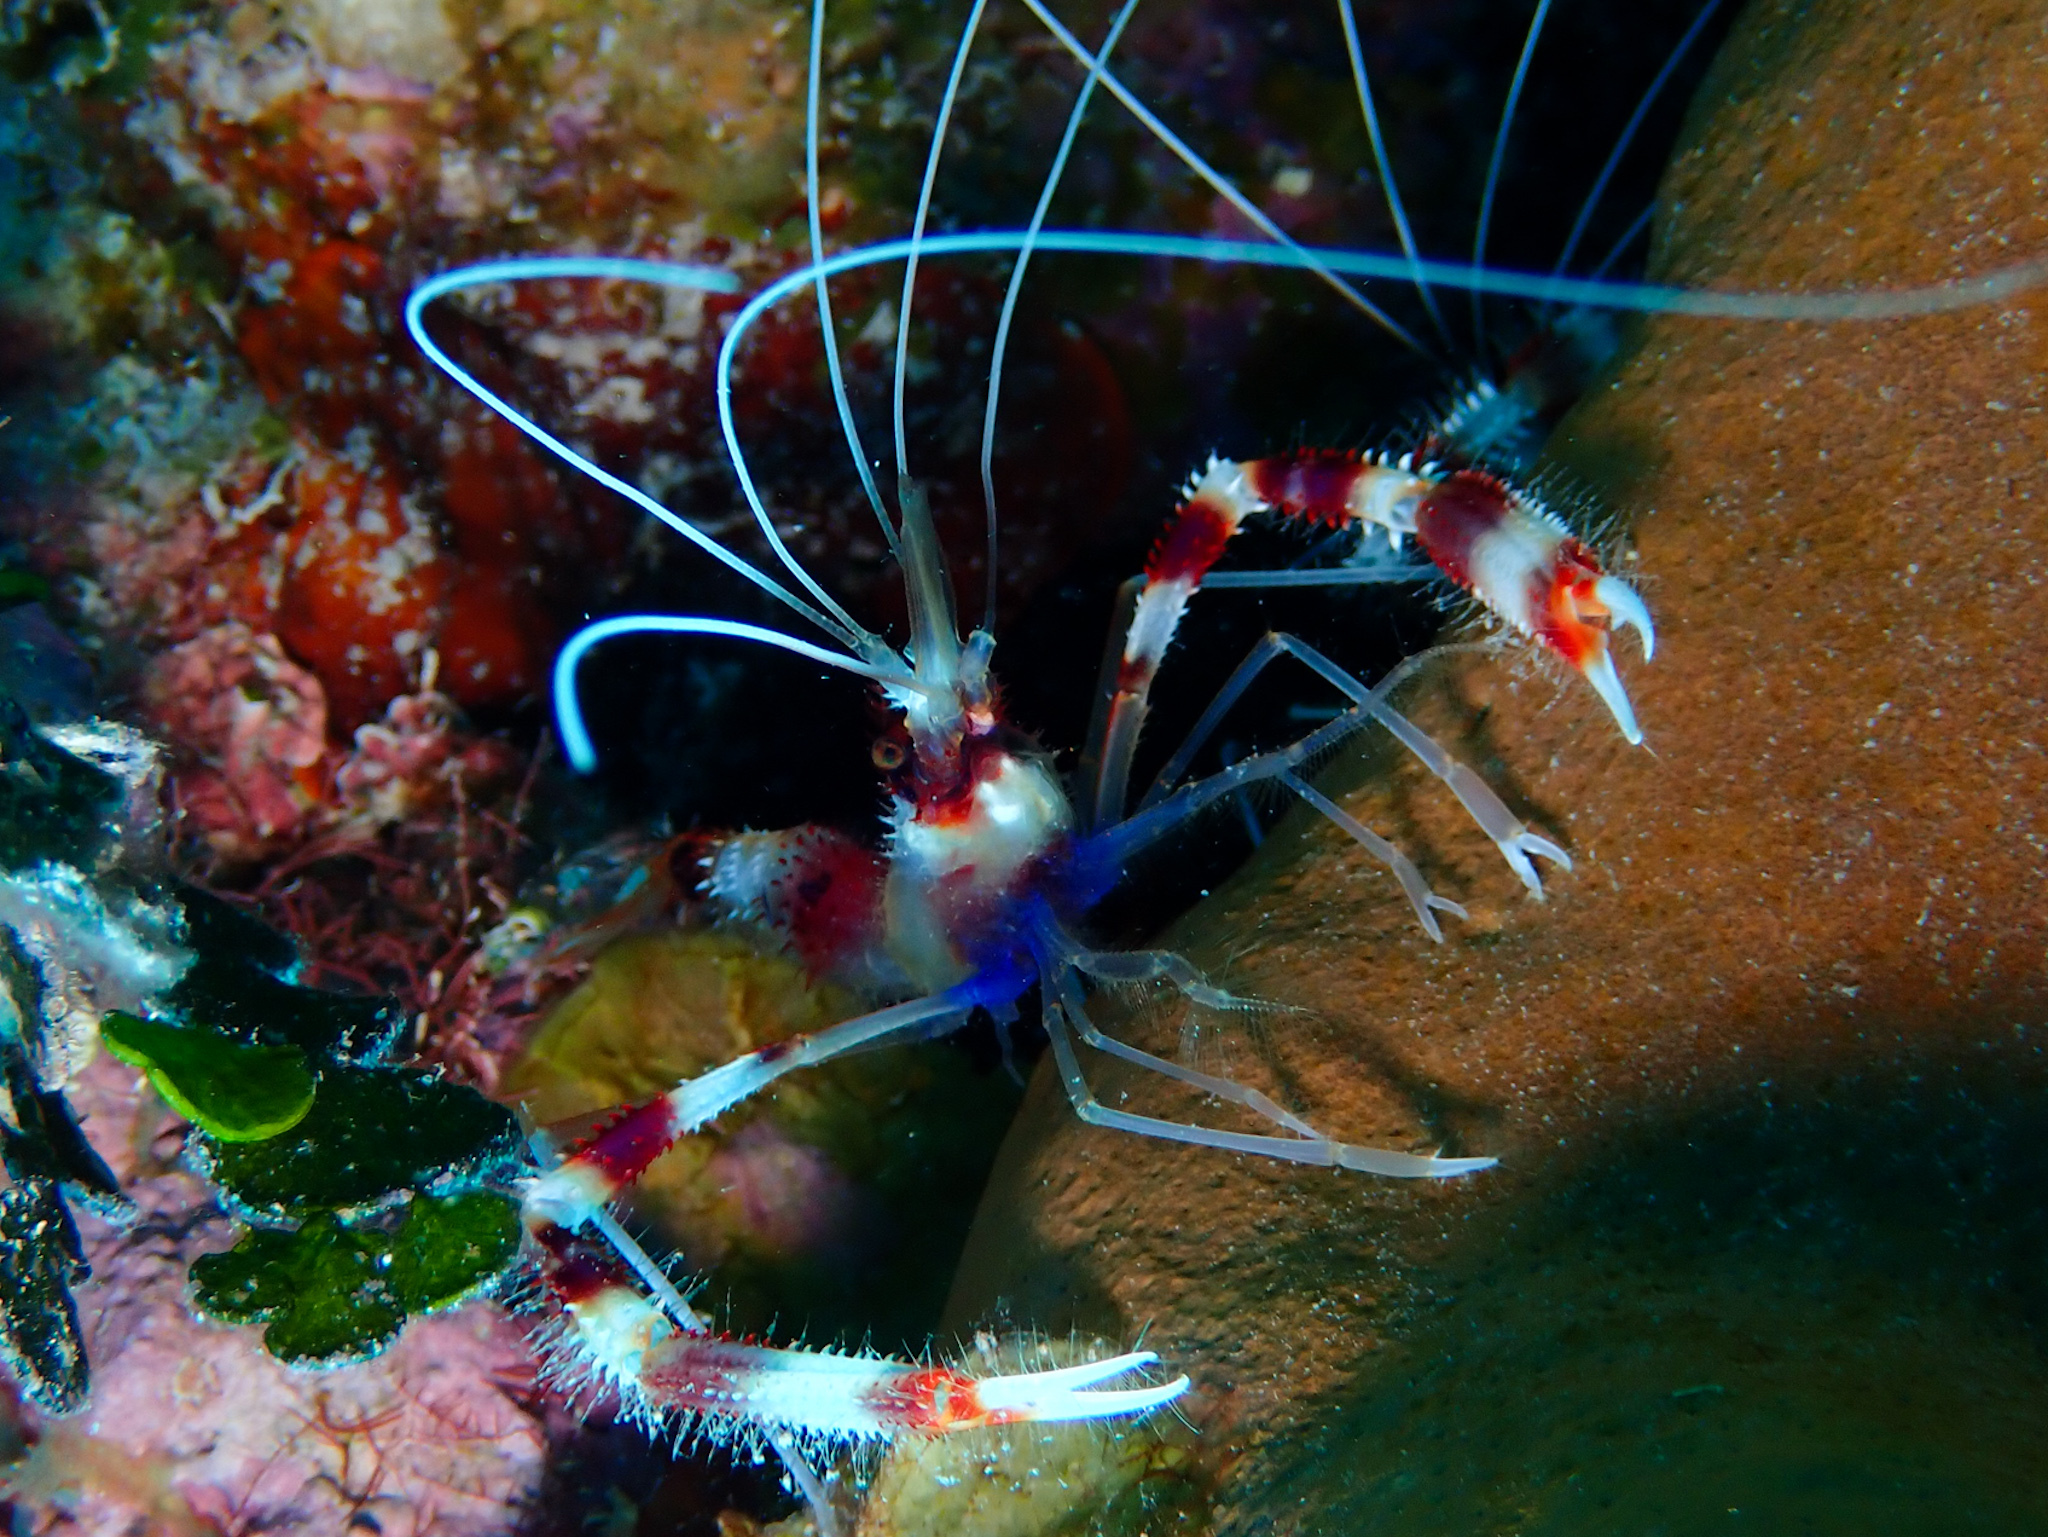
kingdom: Animalia
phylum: Arthropoda
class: Malacostraca
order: Decapoda
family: Stenopodidae
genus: Stenopus
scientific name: Stenopus hispidus
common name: Banded coral shrimp
